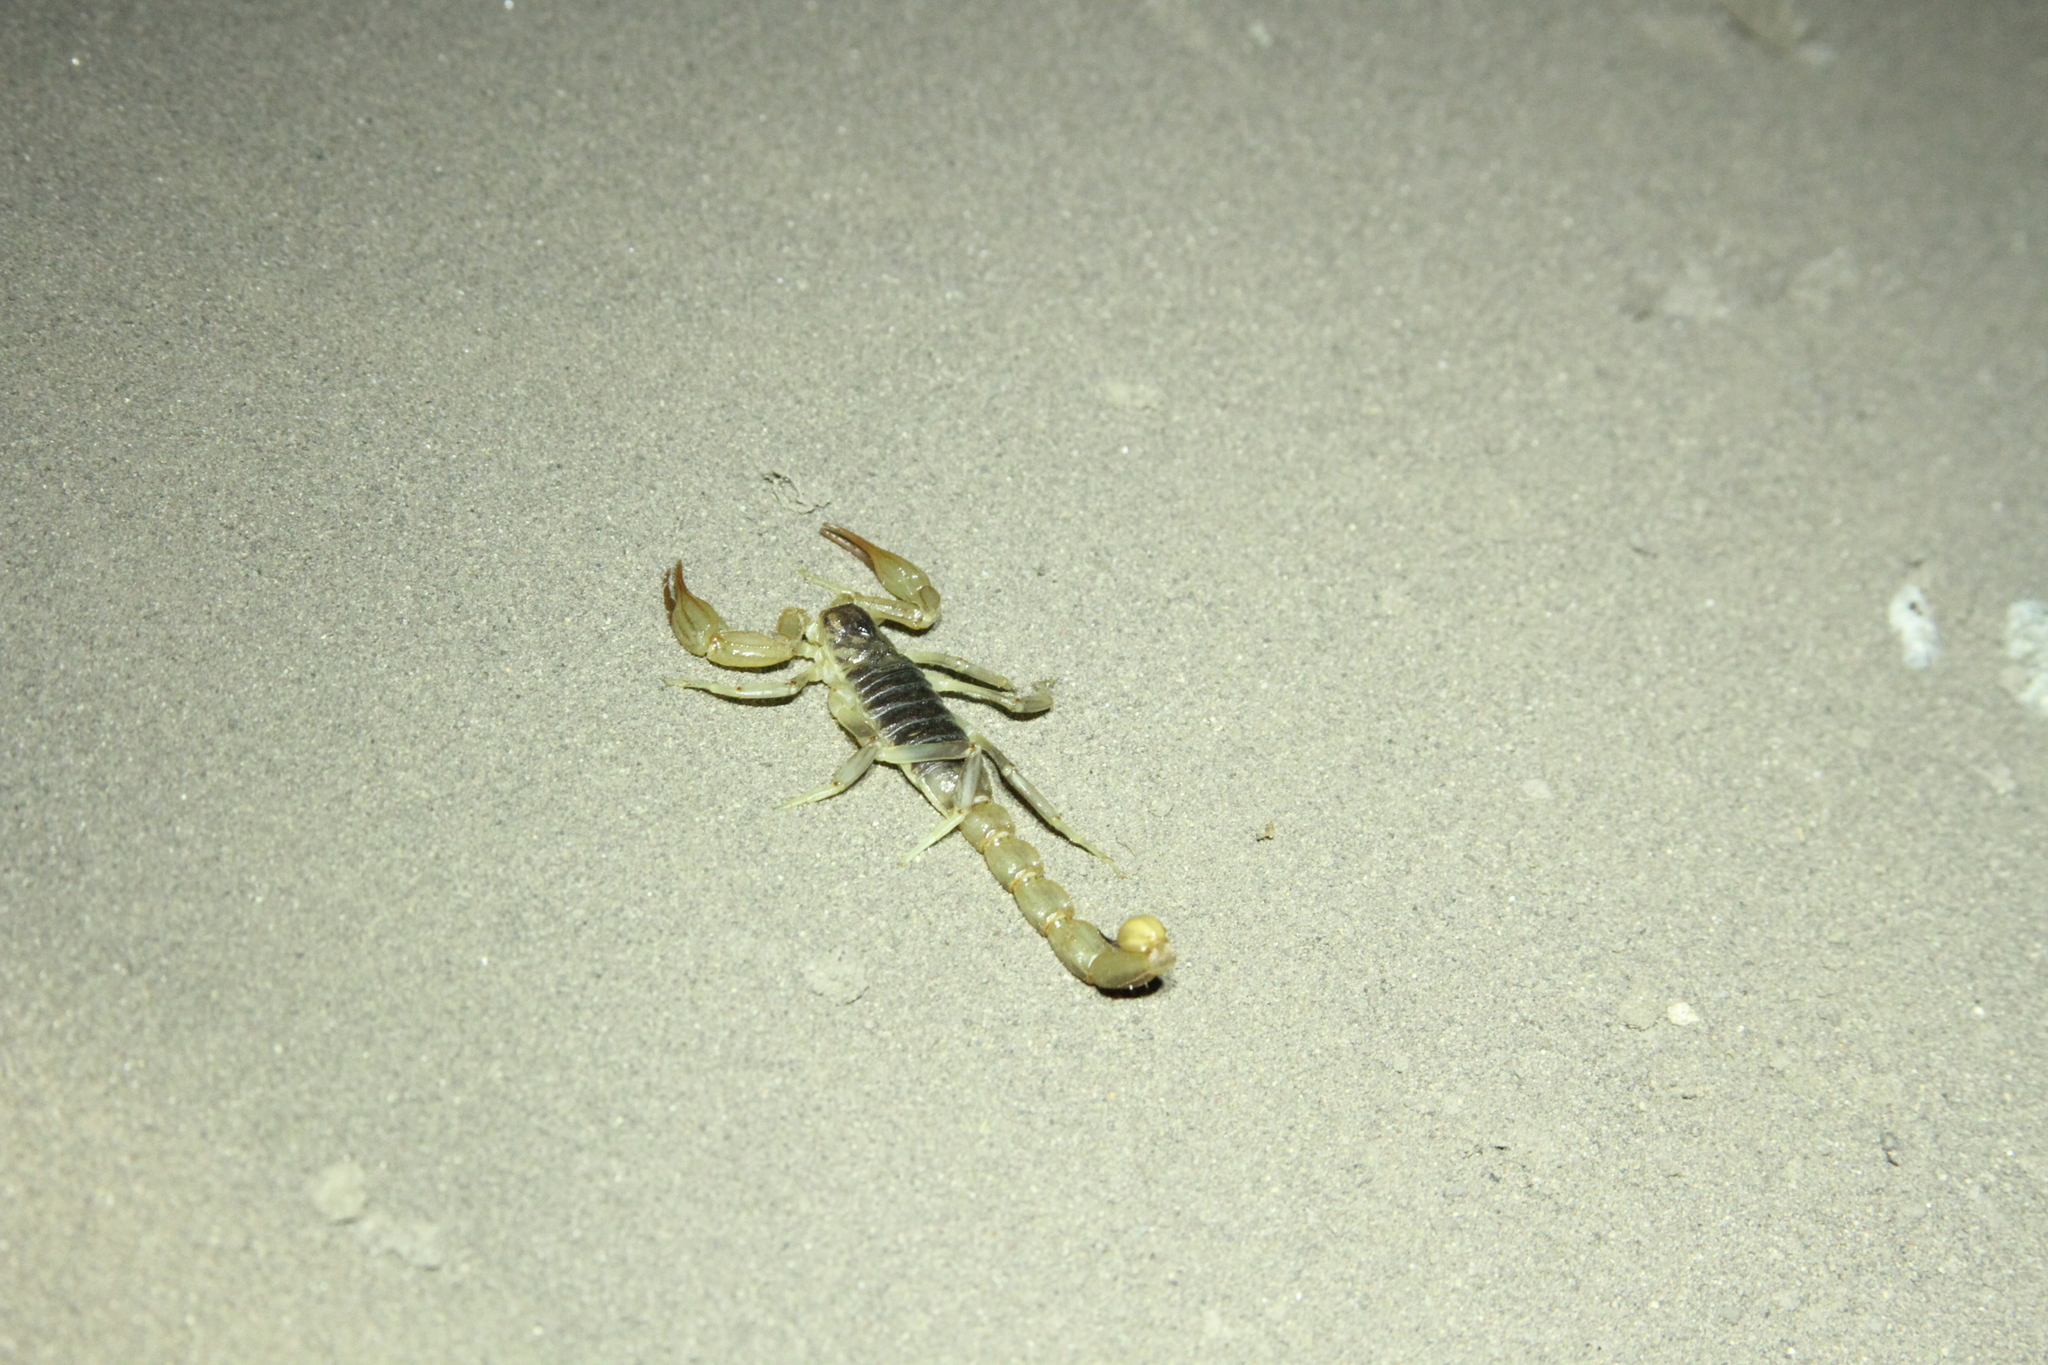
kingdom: Animalia
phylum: Arthropoda
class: Arachnida
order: Scorpiones
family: Vaejovidae
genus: Paruroctonus
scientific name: Paruroctonus silvestrii
